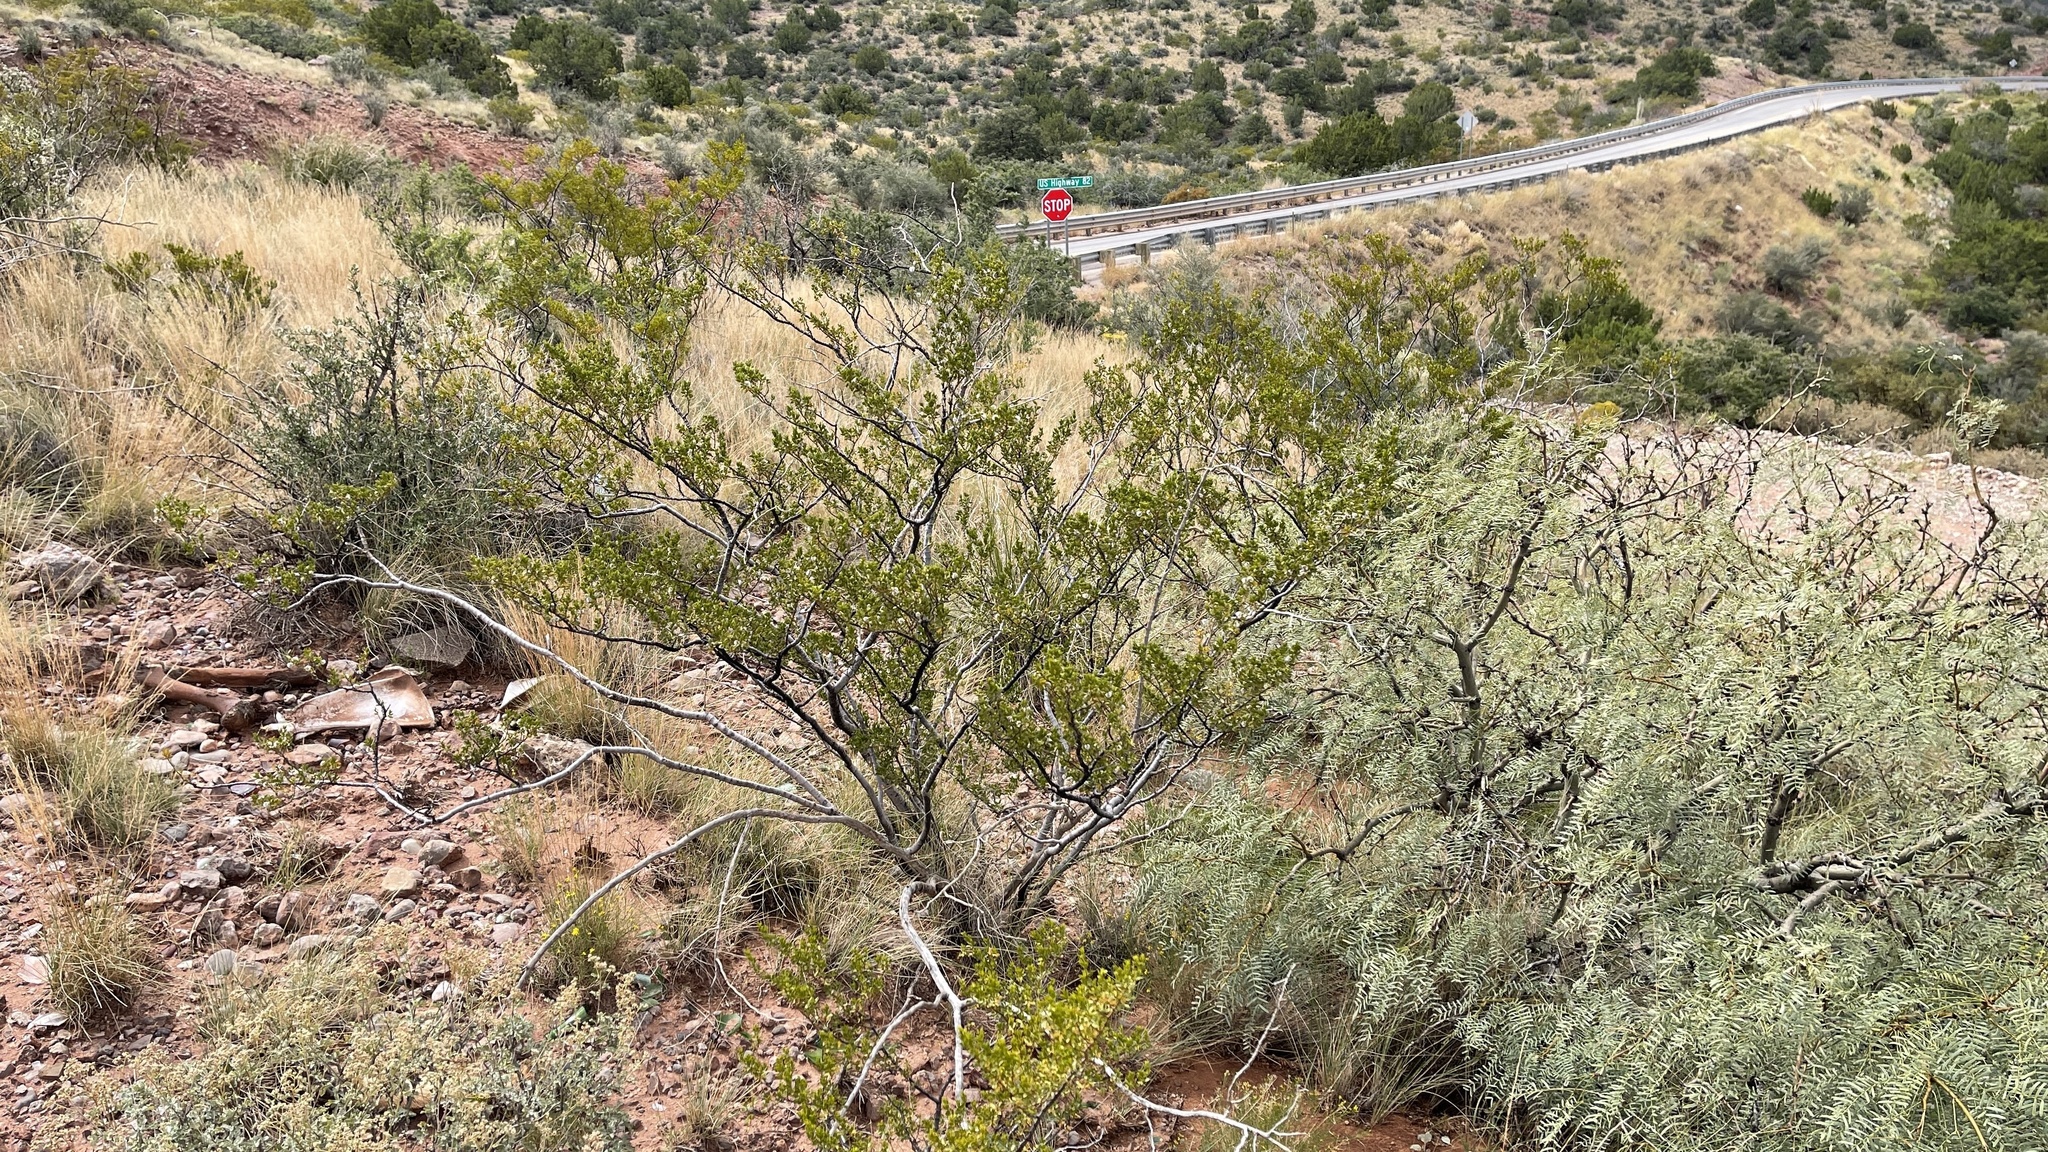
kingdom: Plantae
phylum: Tracheophyta
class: Magnoliopsida
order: Zygophyllales
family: Zygophyllaceae
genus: Larrea
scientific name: Larrea tridentata
